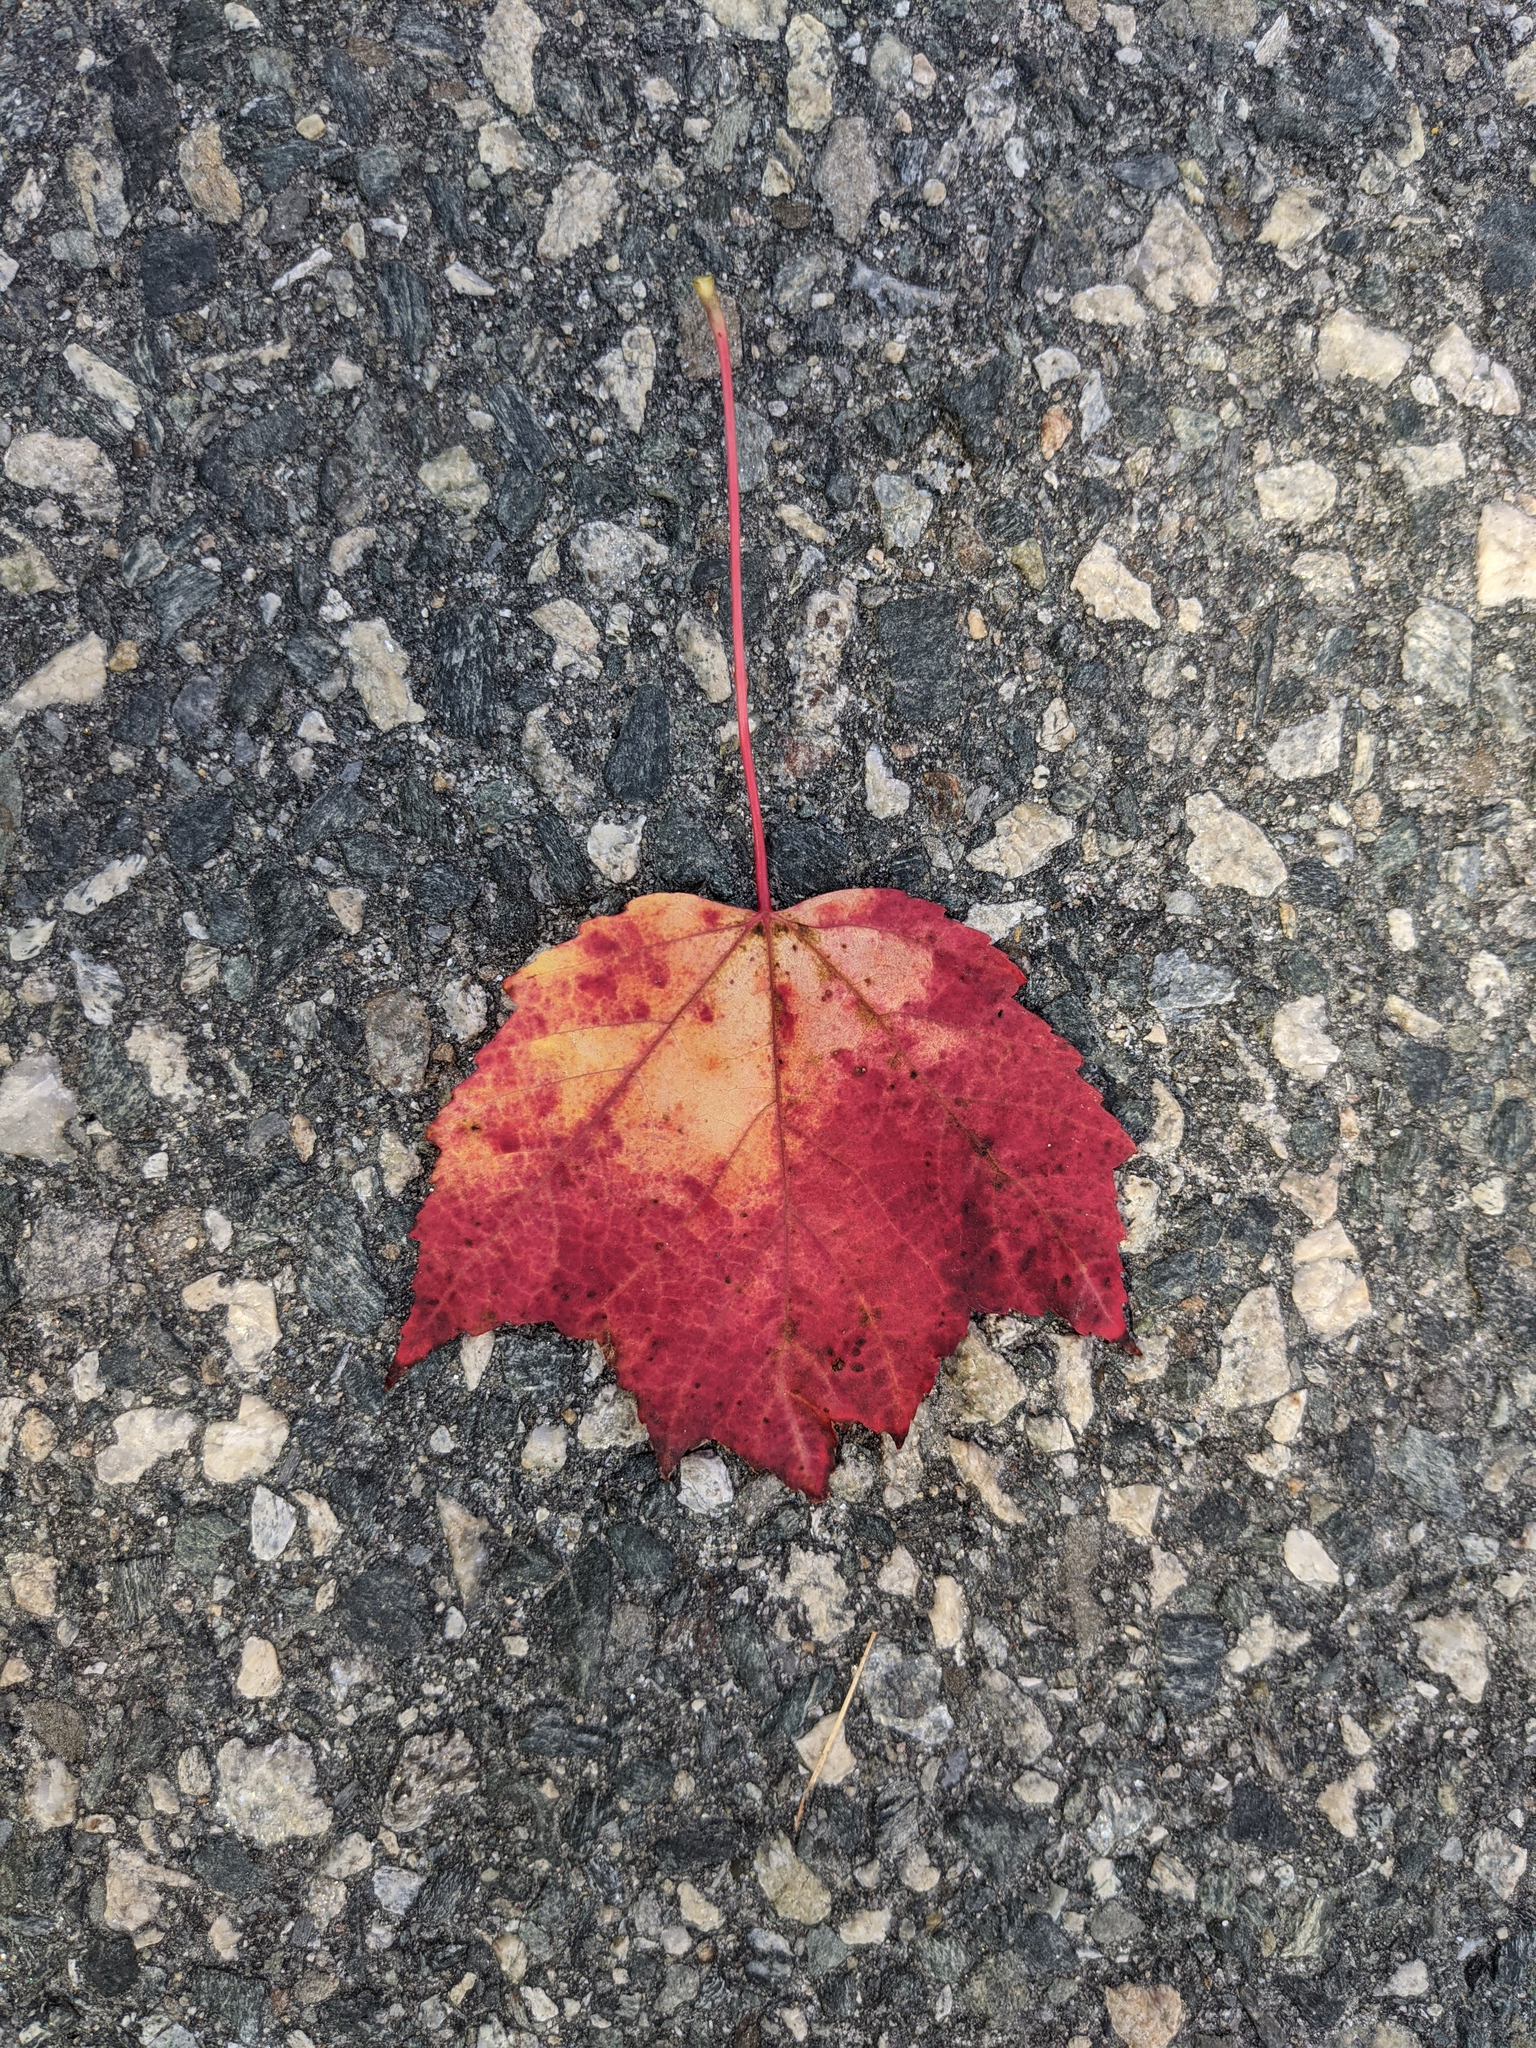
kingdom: Plantae
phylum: Tracheophyta
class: Magnoliopsida
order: Sapindales
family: Sapindaceae
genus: Acer
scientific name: Acer rubrum
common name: Red maple
